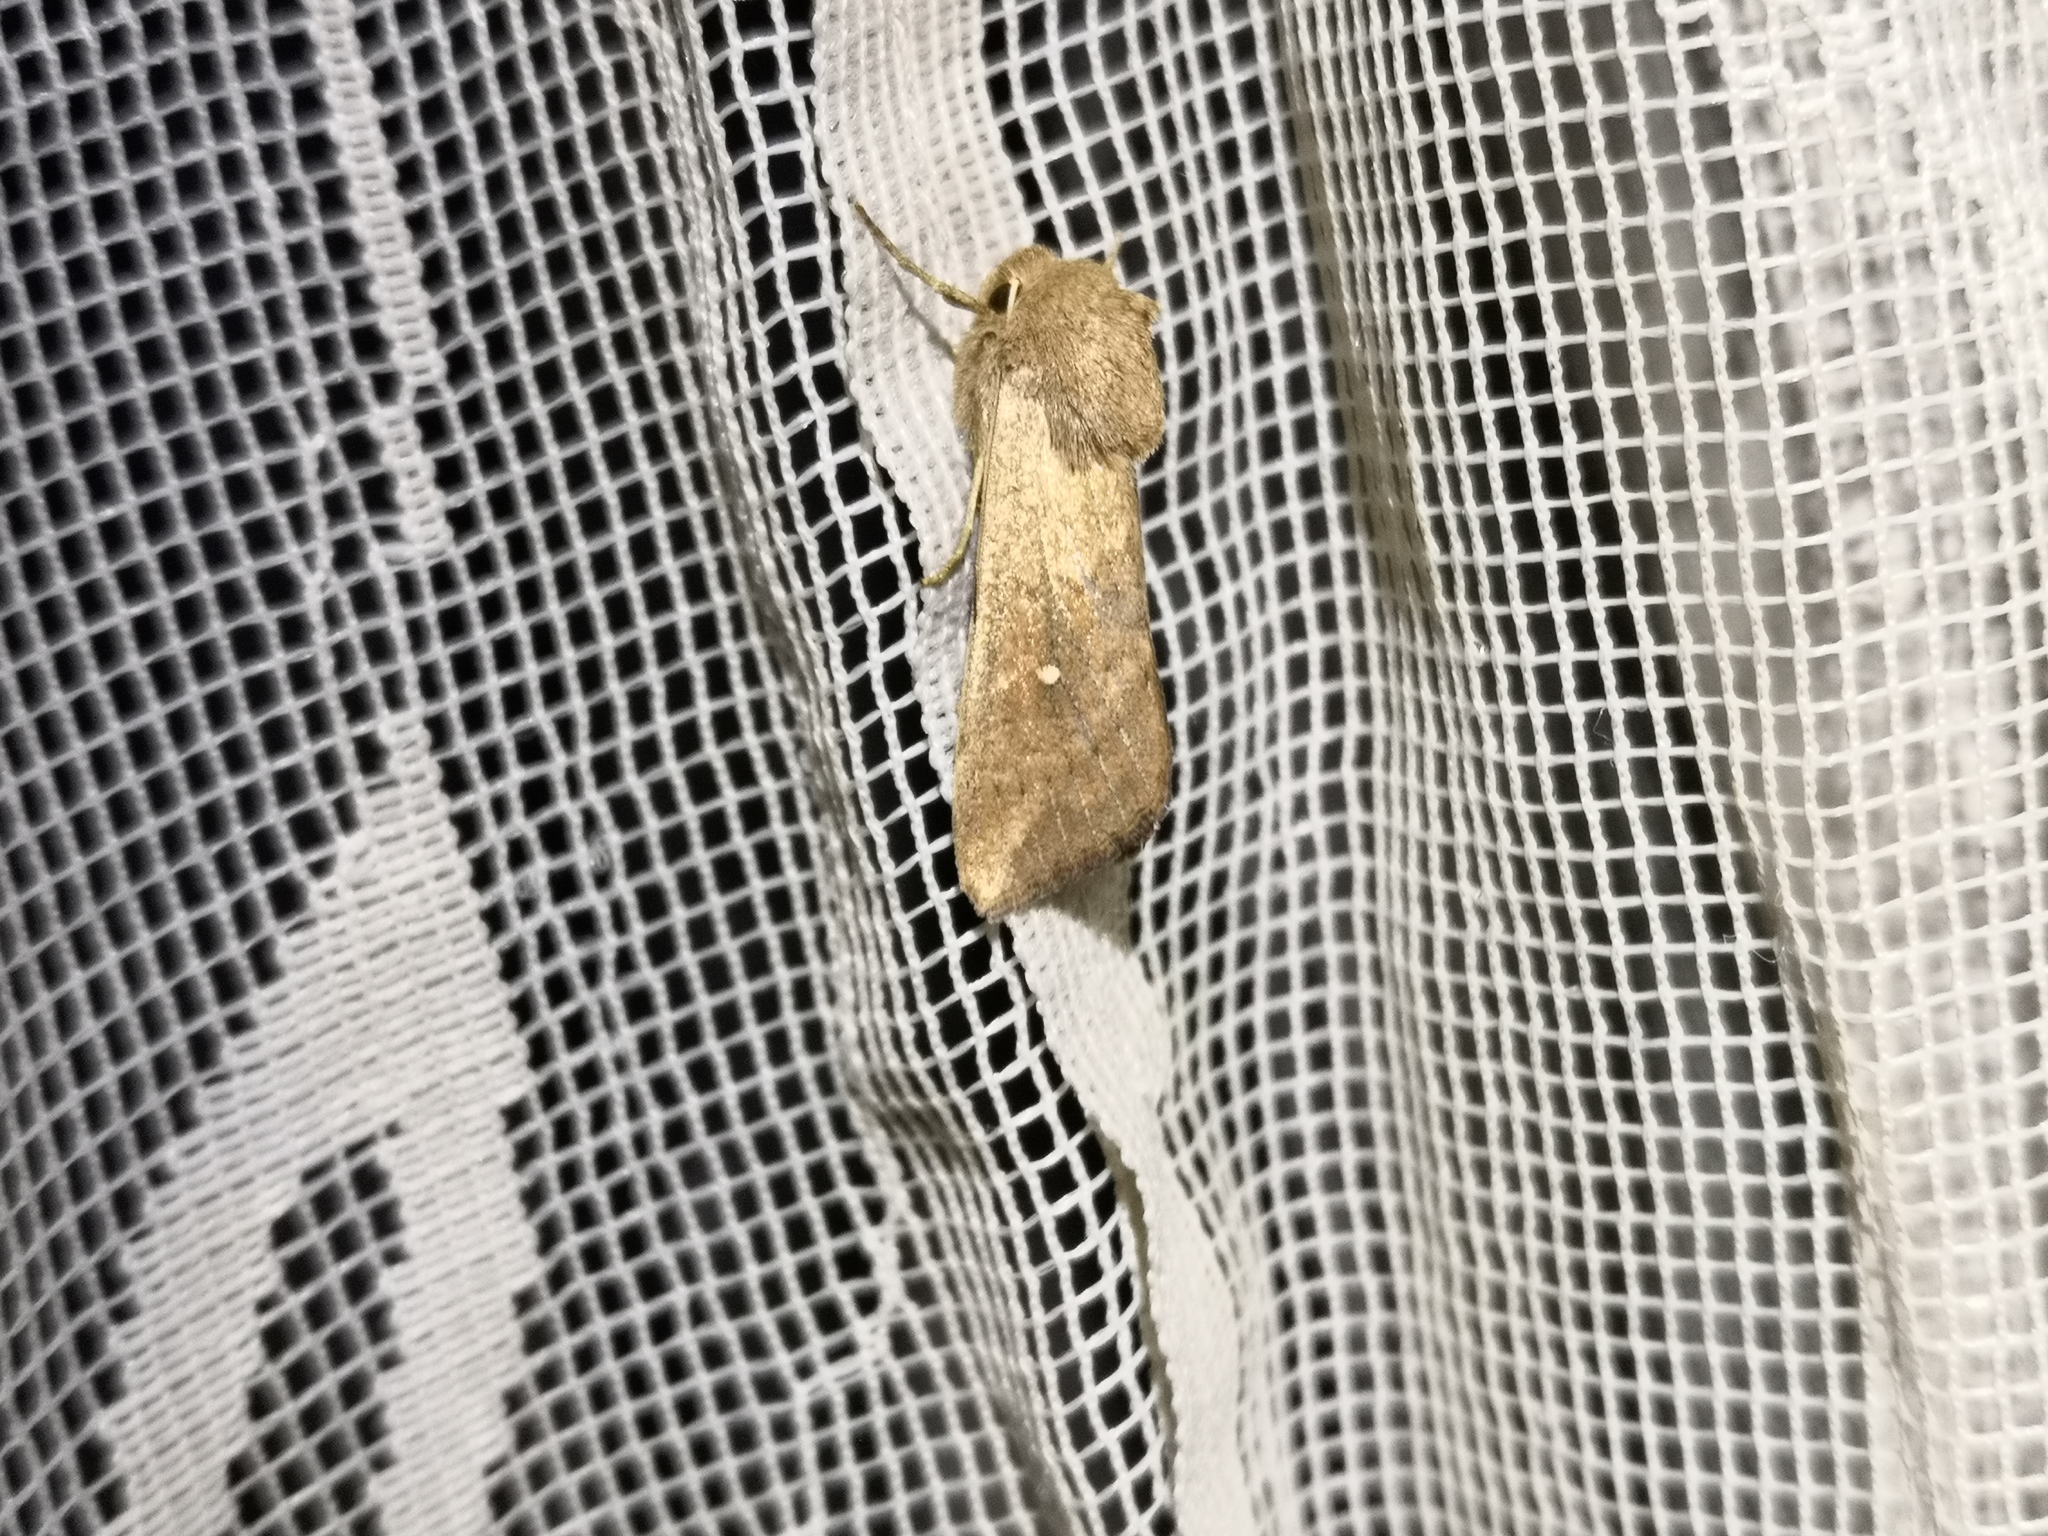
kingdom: Animalia
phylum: Arthropoda
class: Insecta
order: Lepidoptera
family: Noctuidae
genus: Mythimna
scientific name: Mythimna albipuncta
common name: White-point
